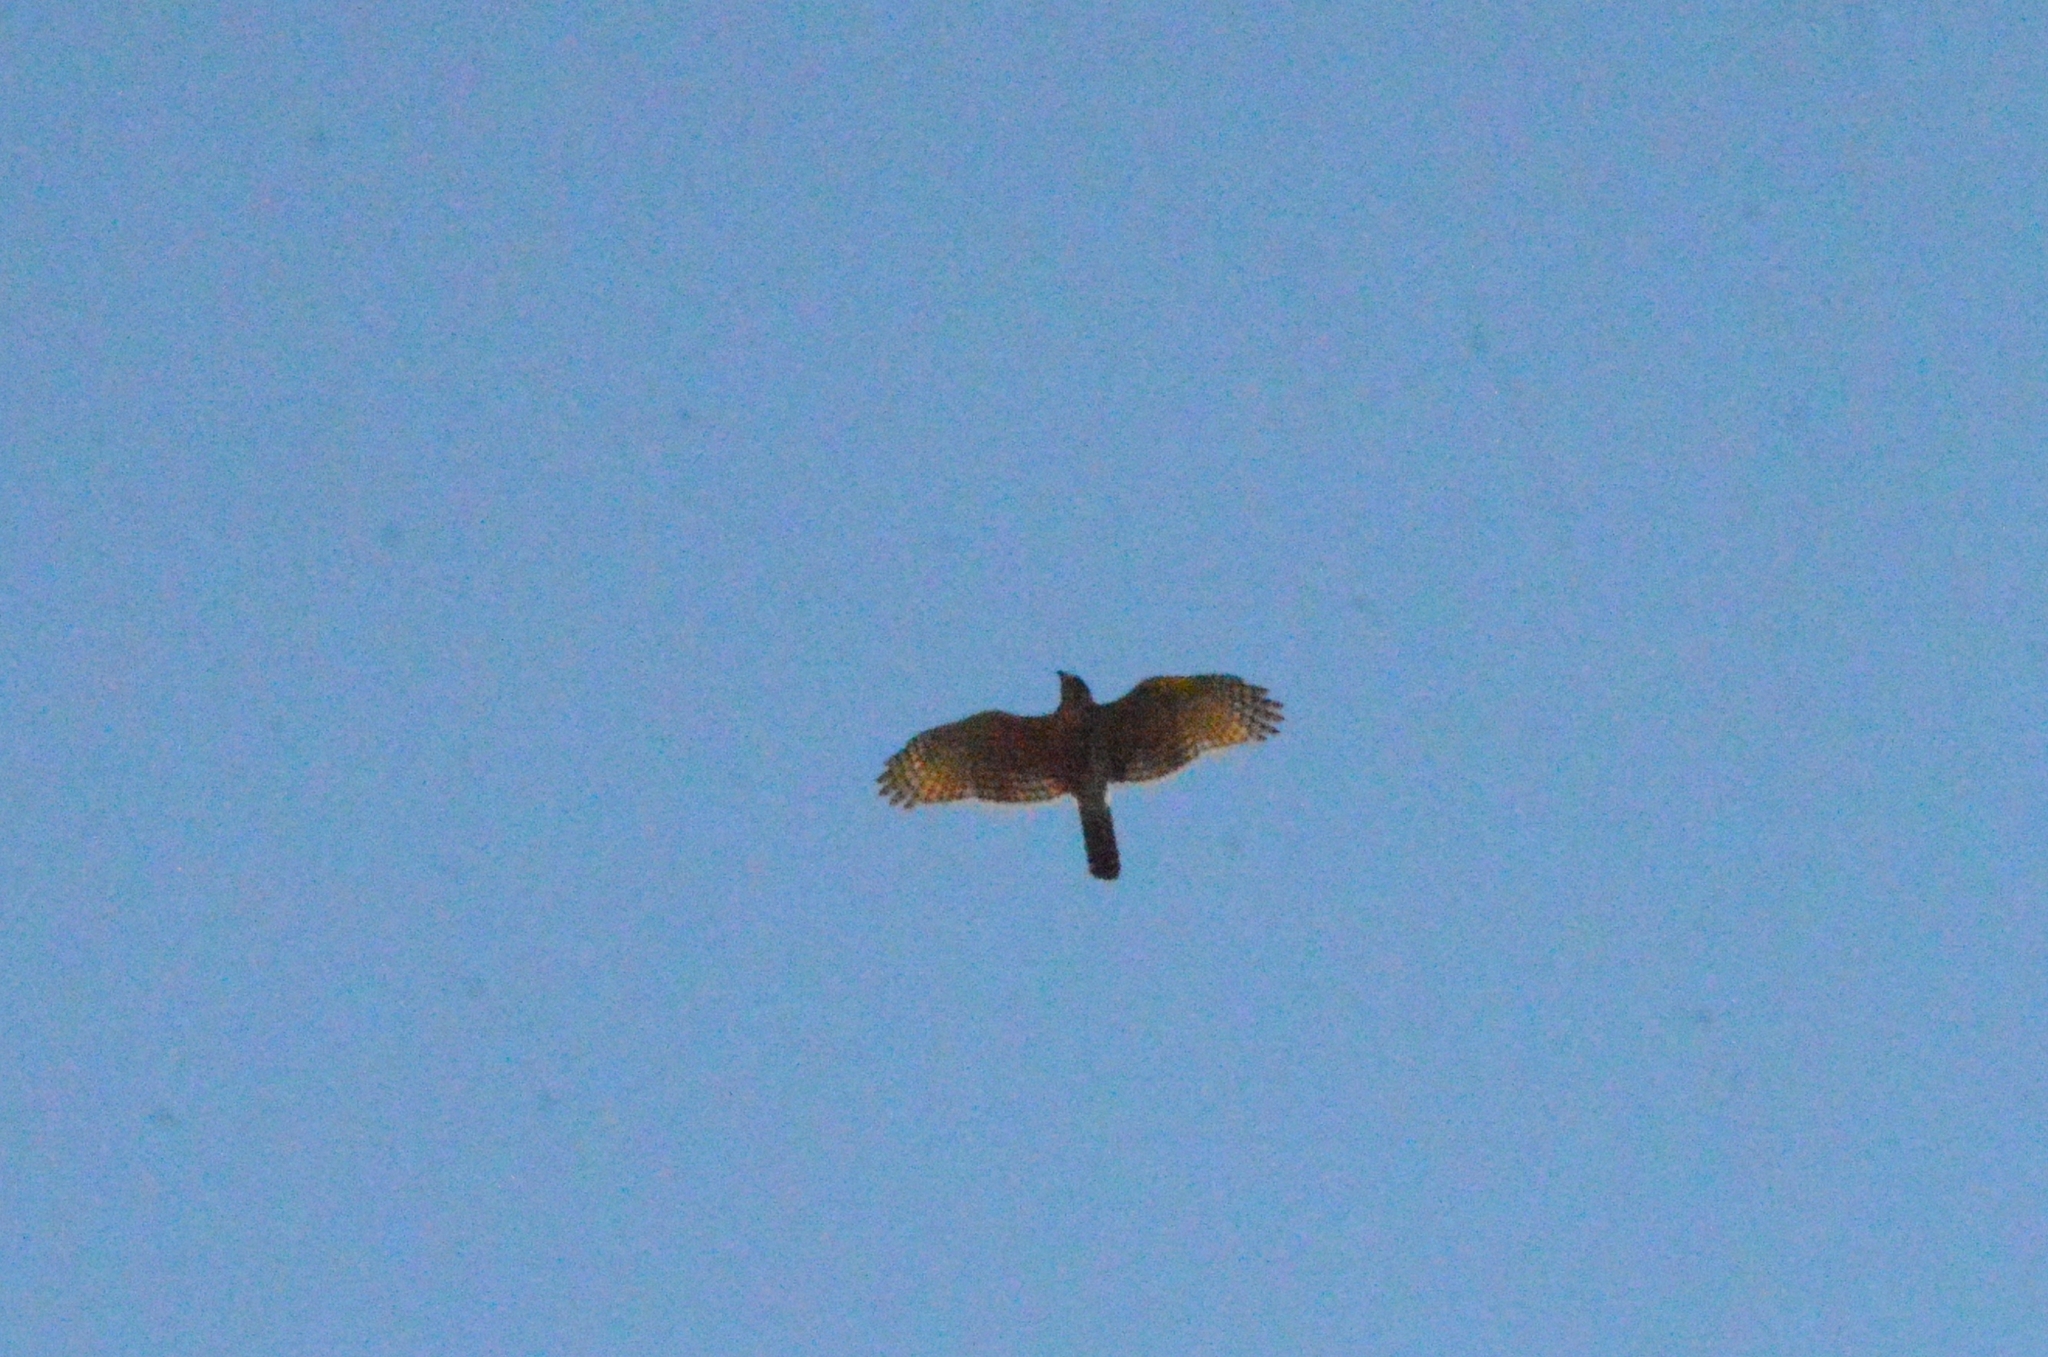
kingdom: Animalia
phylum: Chordata
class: Aves
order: Accipitriformes
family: Accipitridae
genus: Rupornis
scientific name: Rupornis magnirostris
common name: Roadside hawk
